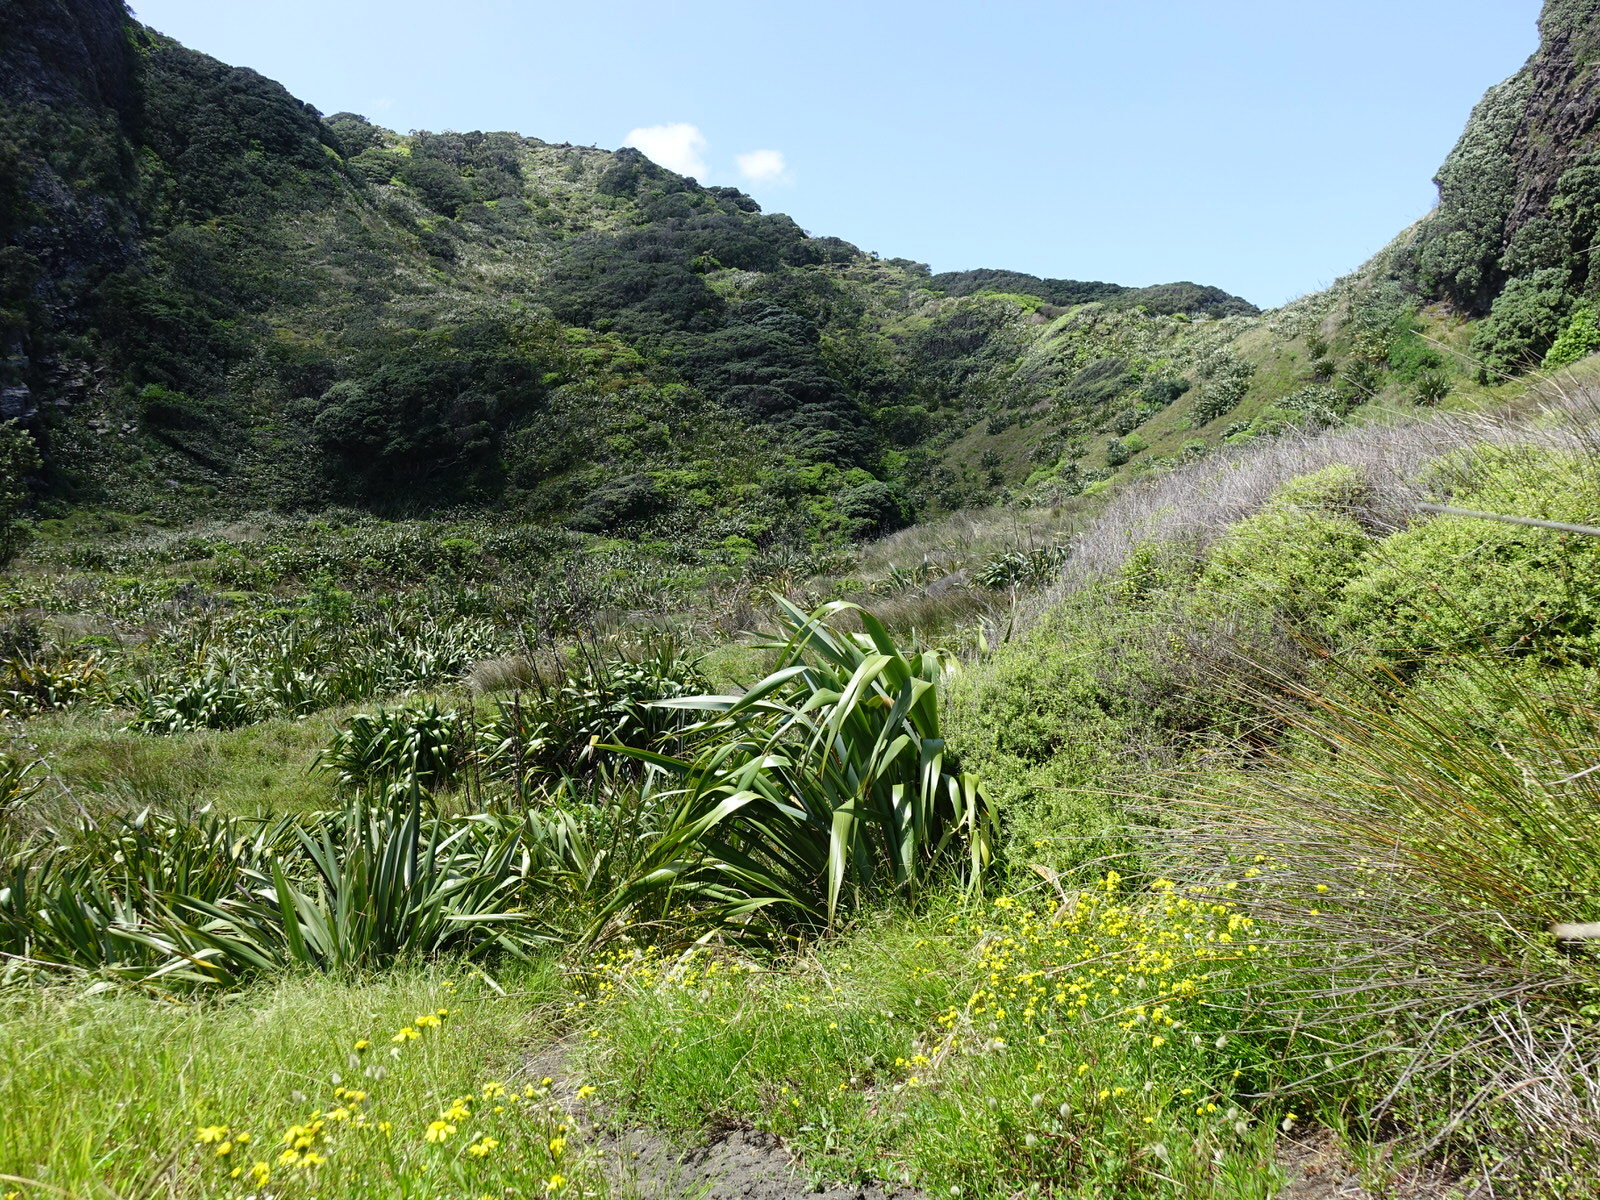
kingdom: Animalia
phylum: Arthropoda
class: Insecta
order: Lepidoptera
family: Nymphalidae
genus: Vanessa
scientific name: Vanessa kershawi
